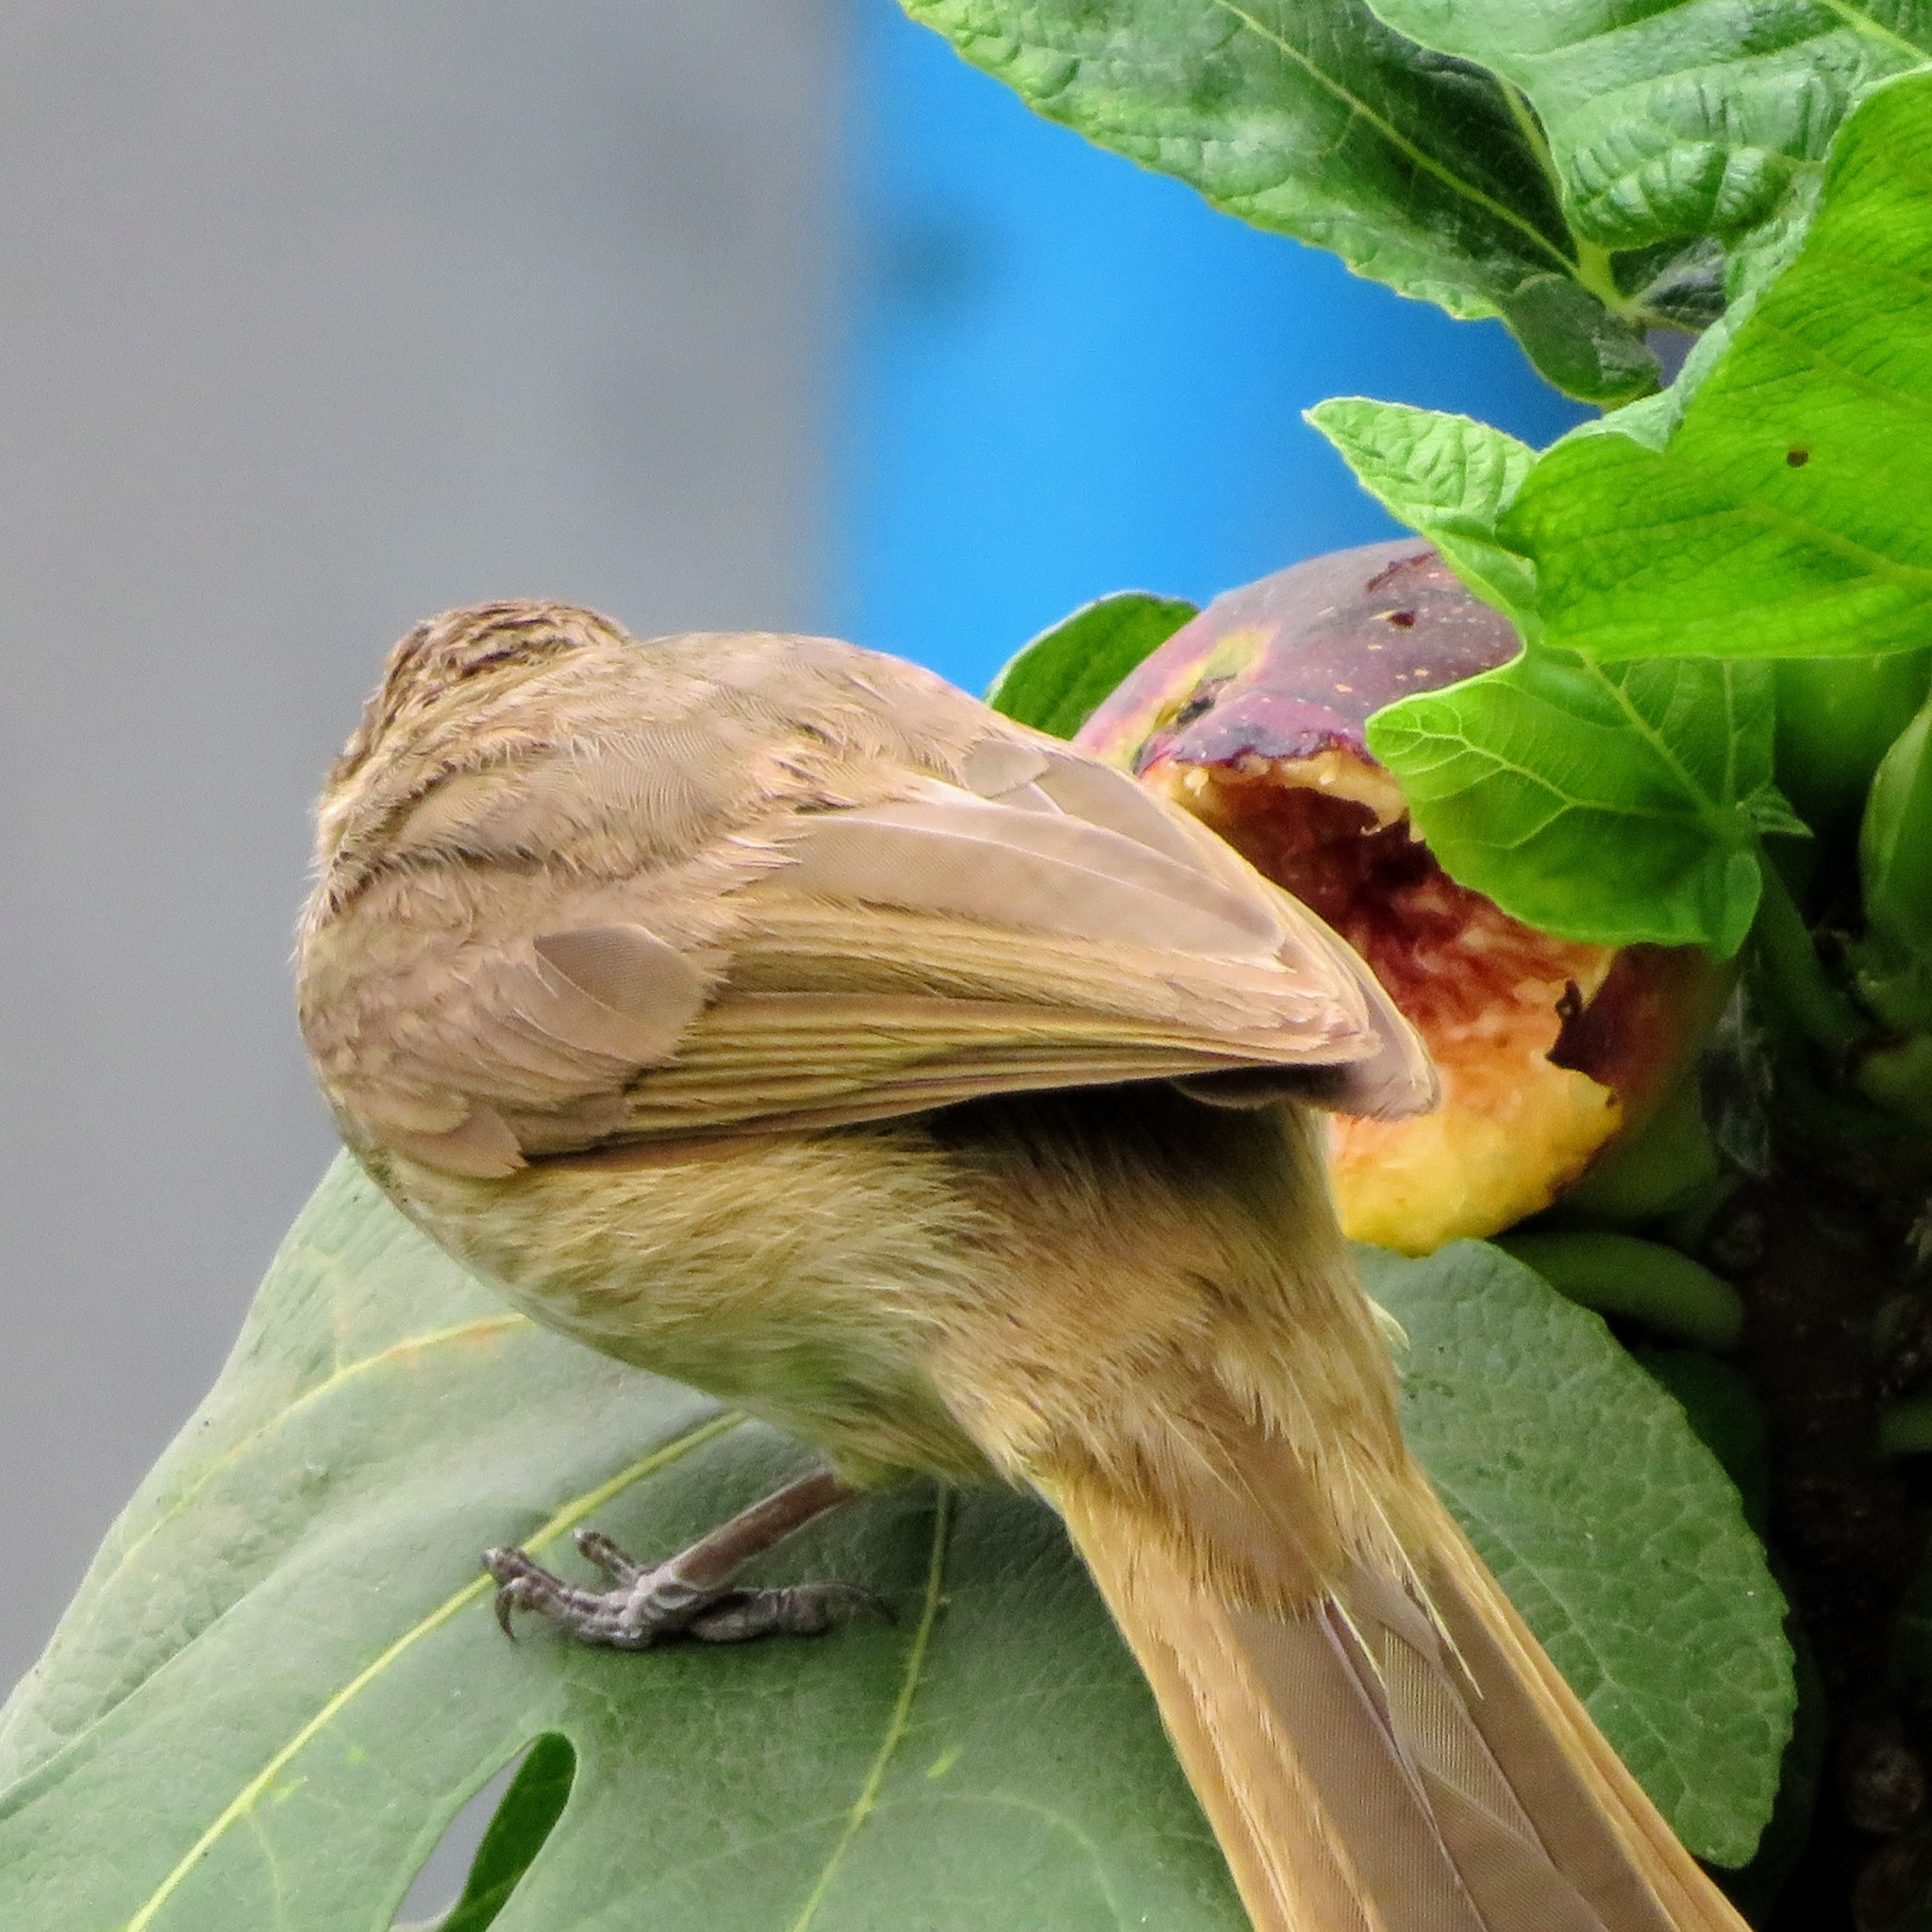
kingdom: Animalia
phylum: Chordata
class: Aves
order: Passeriformes
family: Pycnonotidae
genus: Pycnonotus
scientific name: Pycnonotus blanfordi
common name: Streak-eared bulbul
